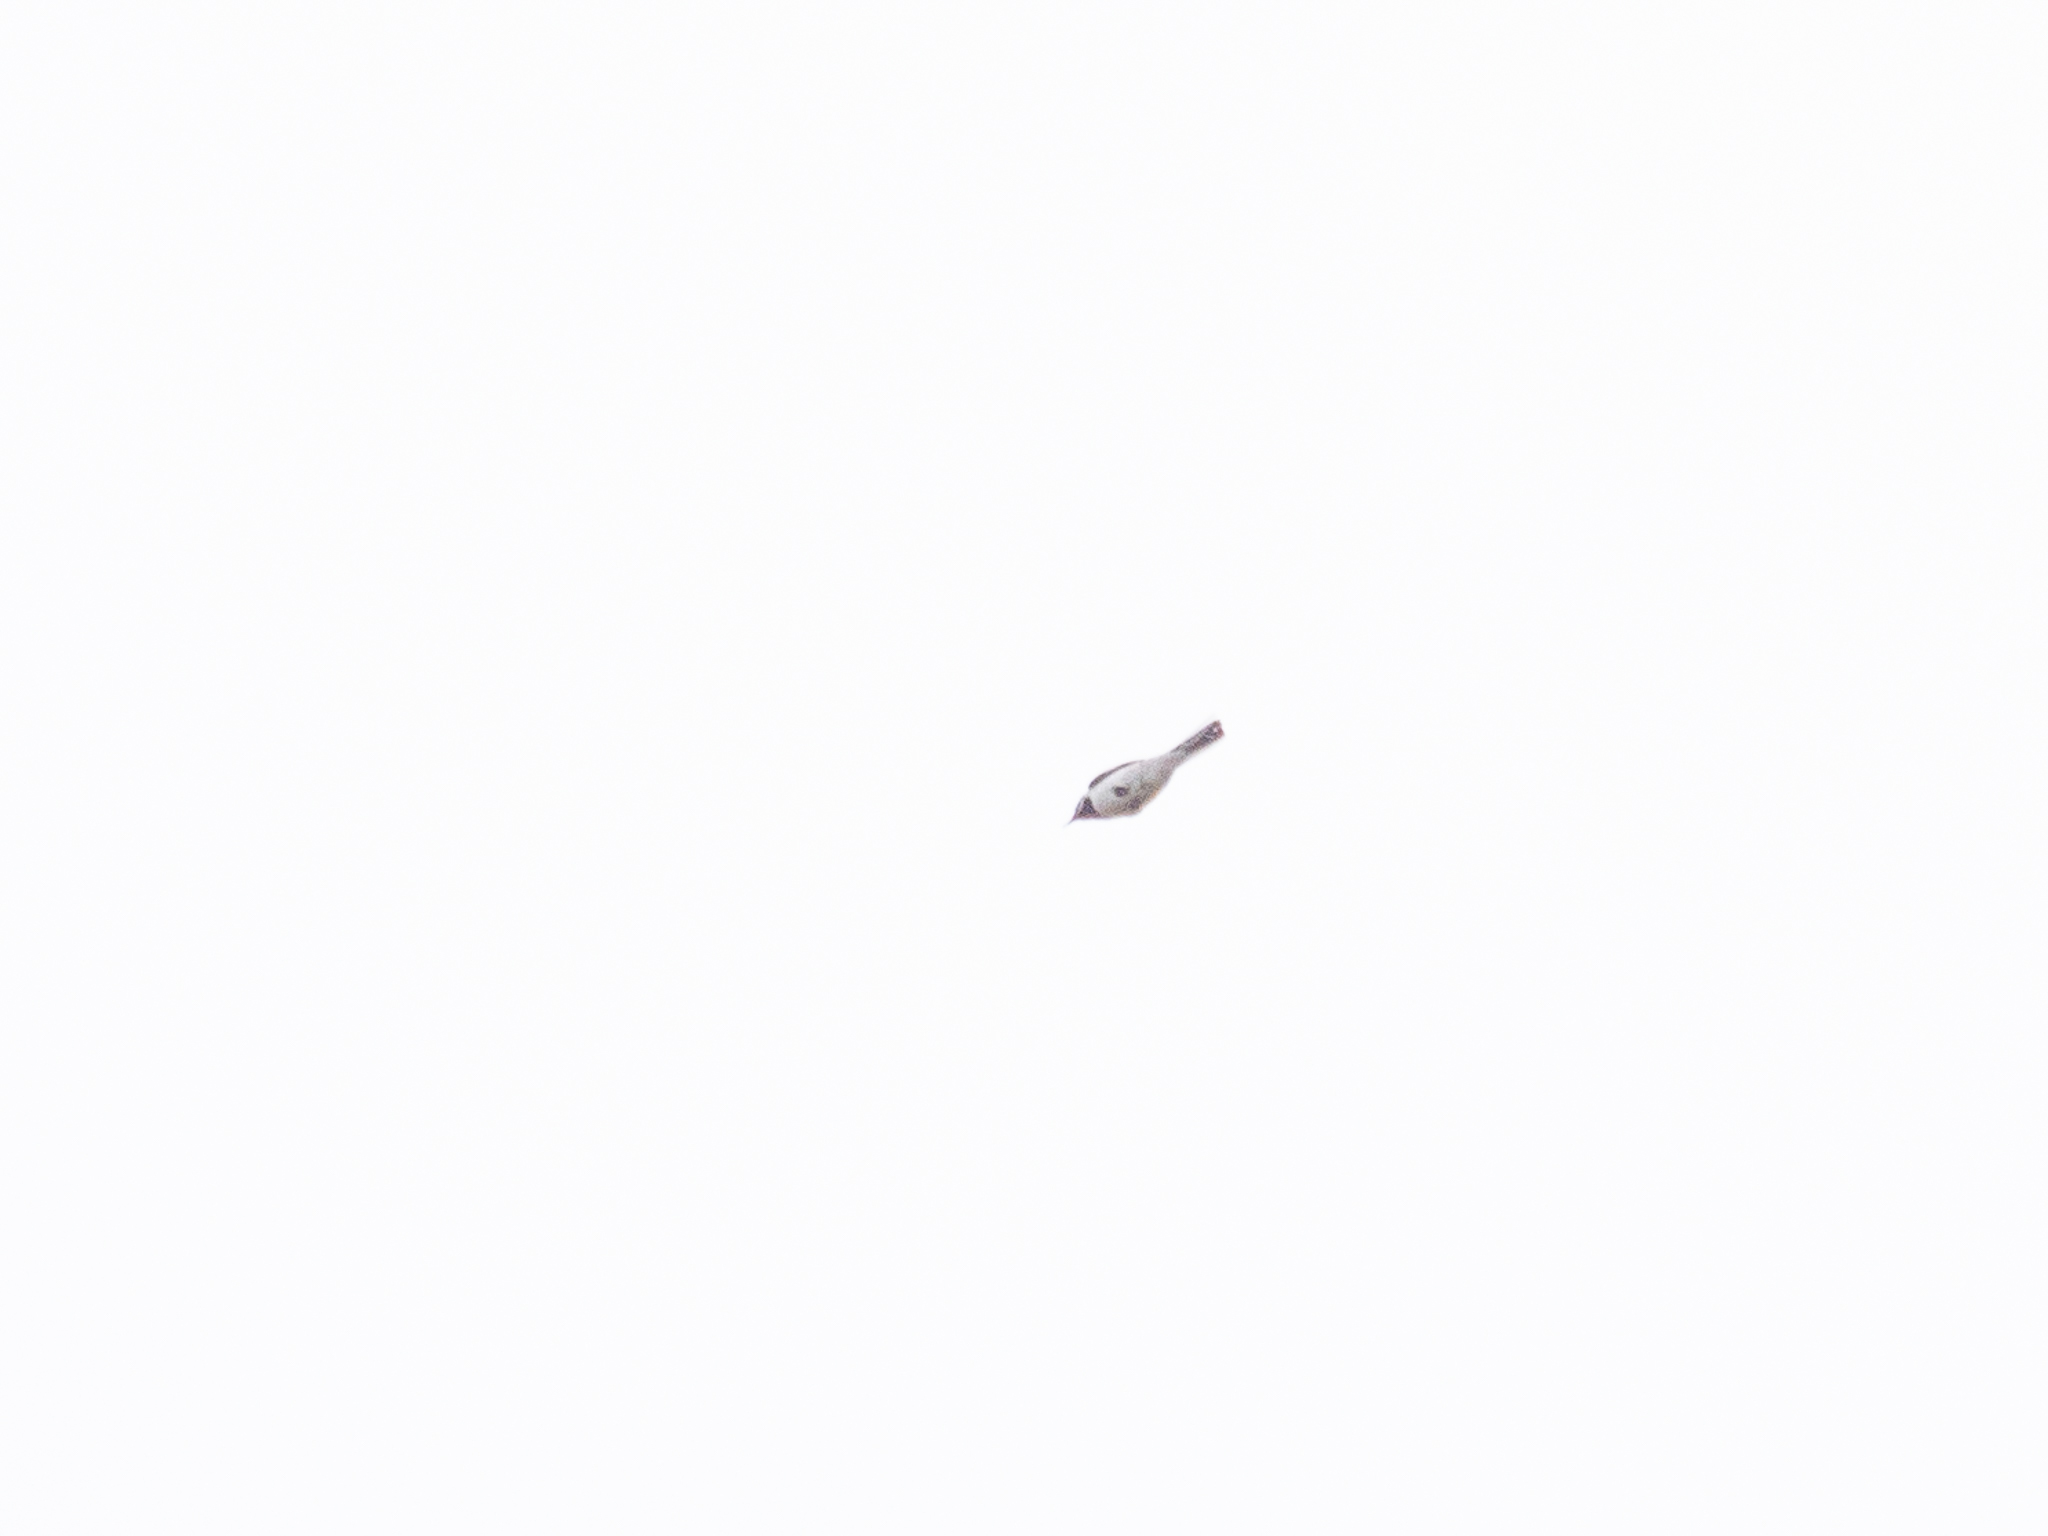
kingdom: Animalia
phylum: Chordata
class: Aves
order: Passeriformes
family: Motacillidae
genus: Motacilla
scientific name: Motacilla alba
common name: White wagtail
